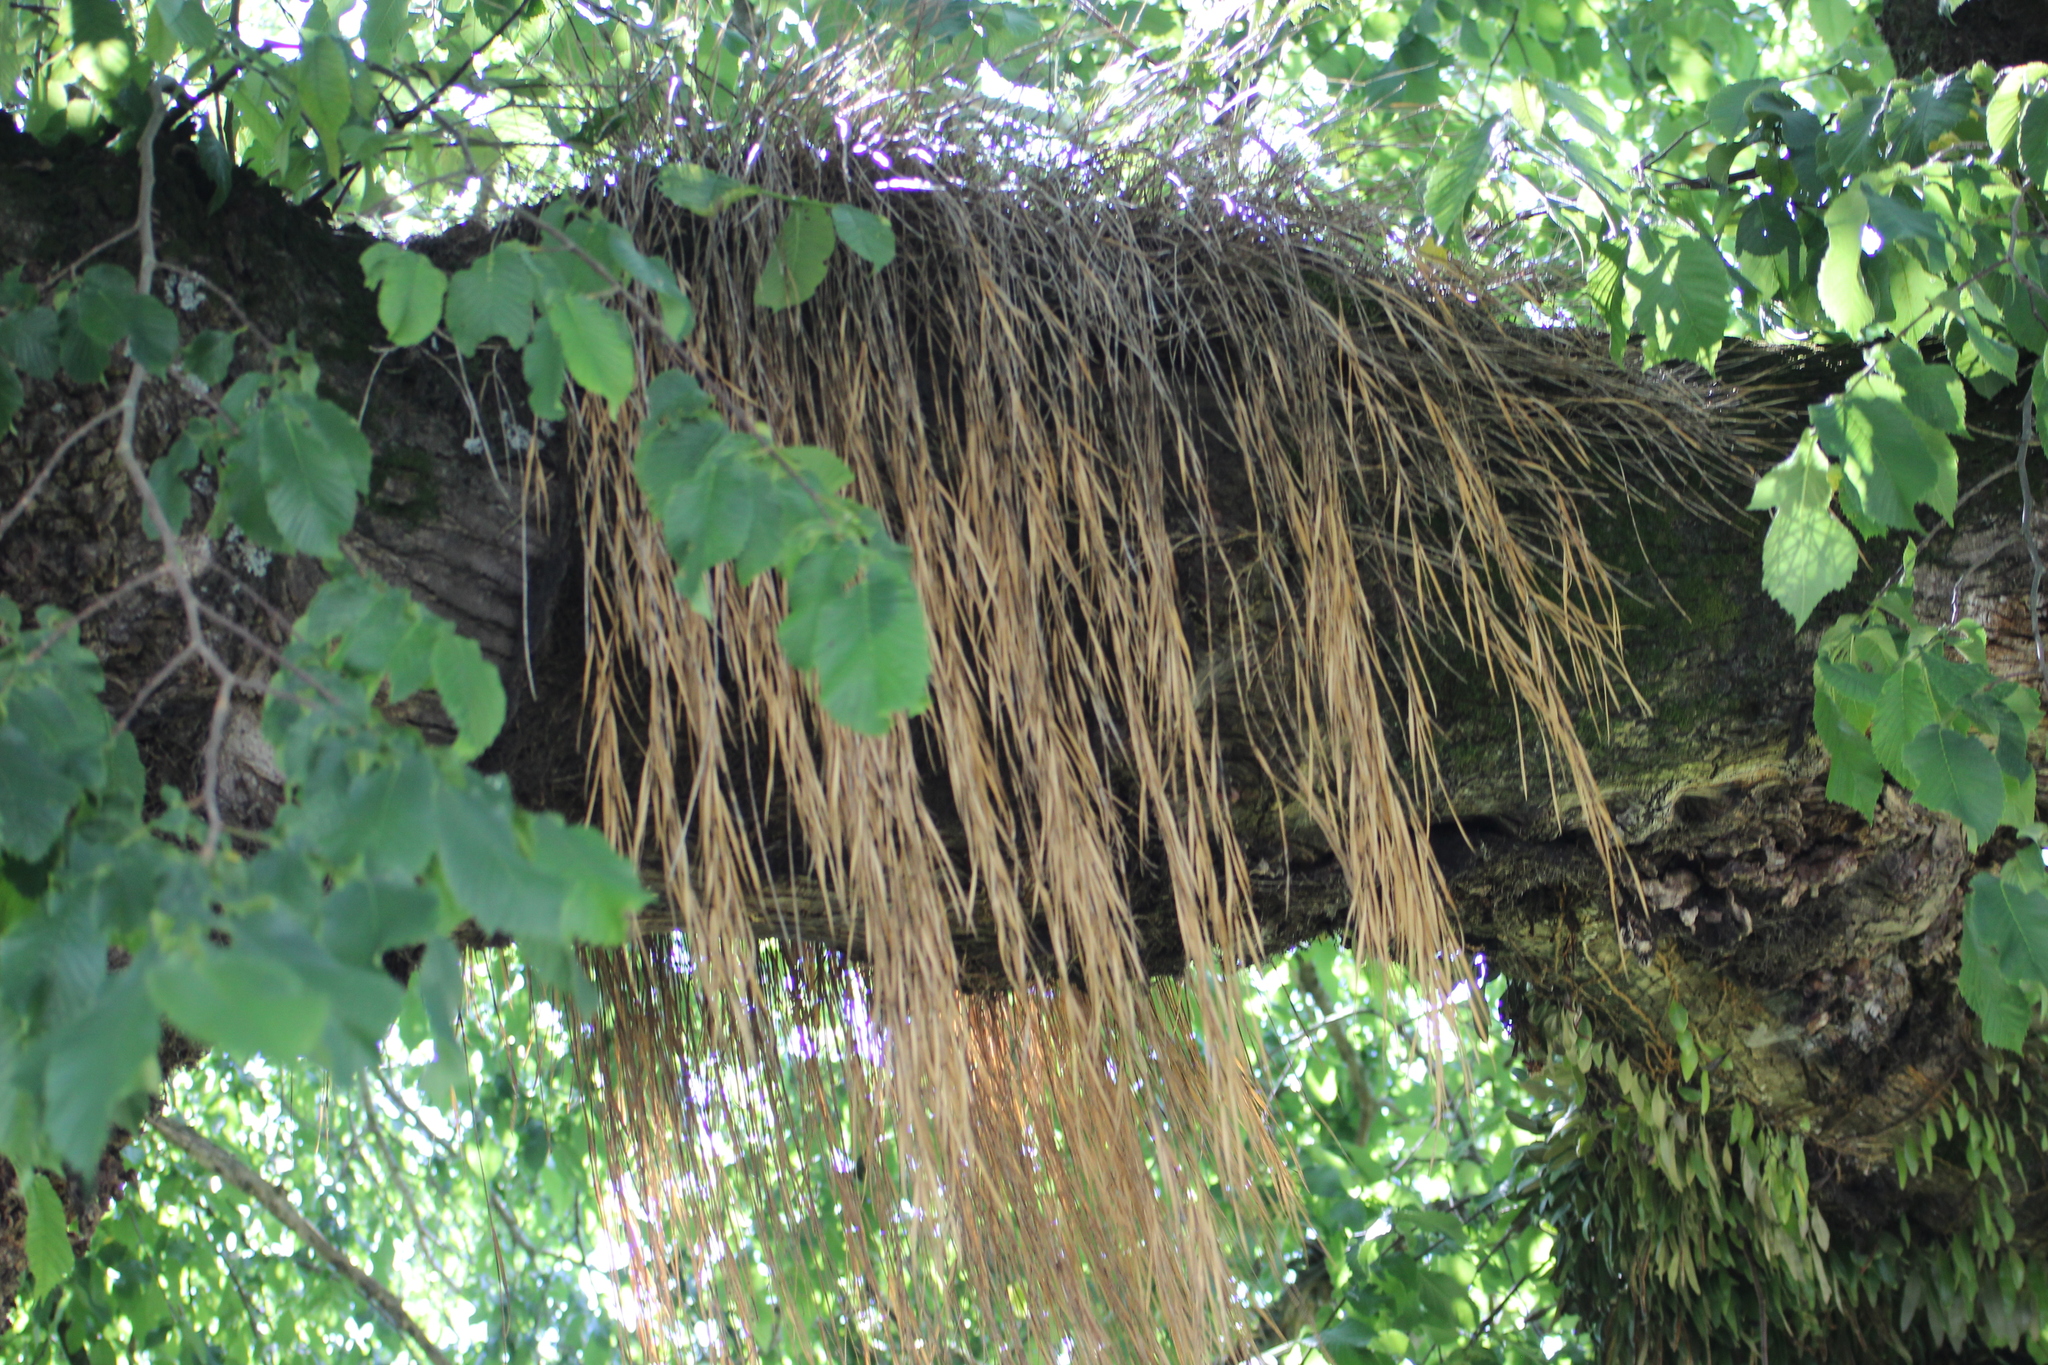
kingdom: Plantae
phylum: Tracheophyta
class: Liliopsida
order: Asparagales
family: Orchidaceae
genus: Earina
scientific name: Earina mucronata
